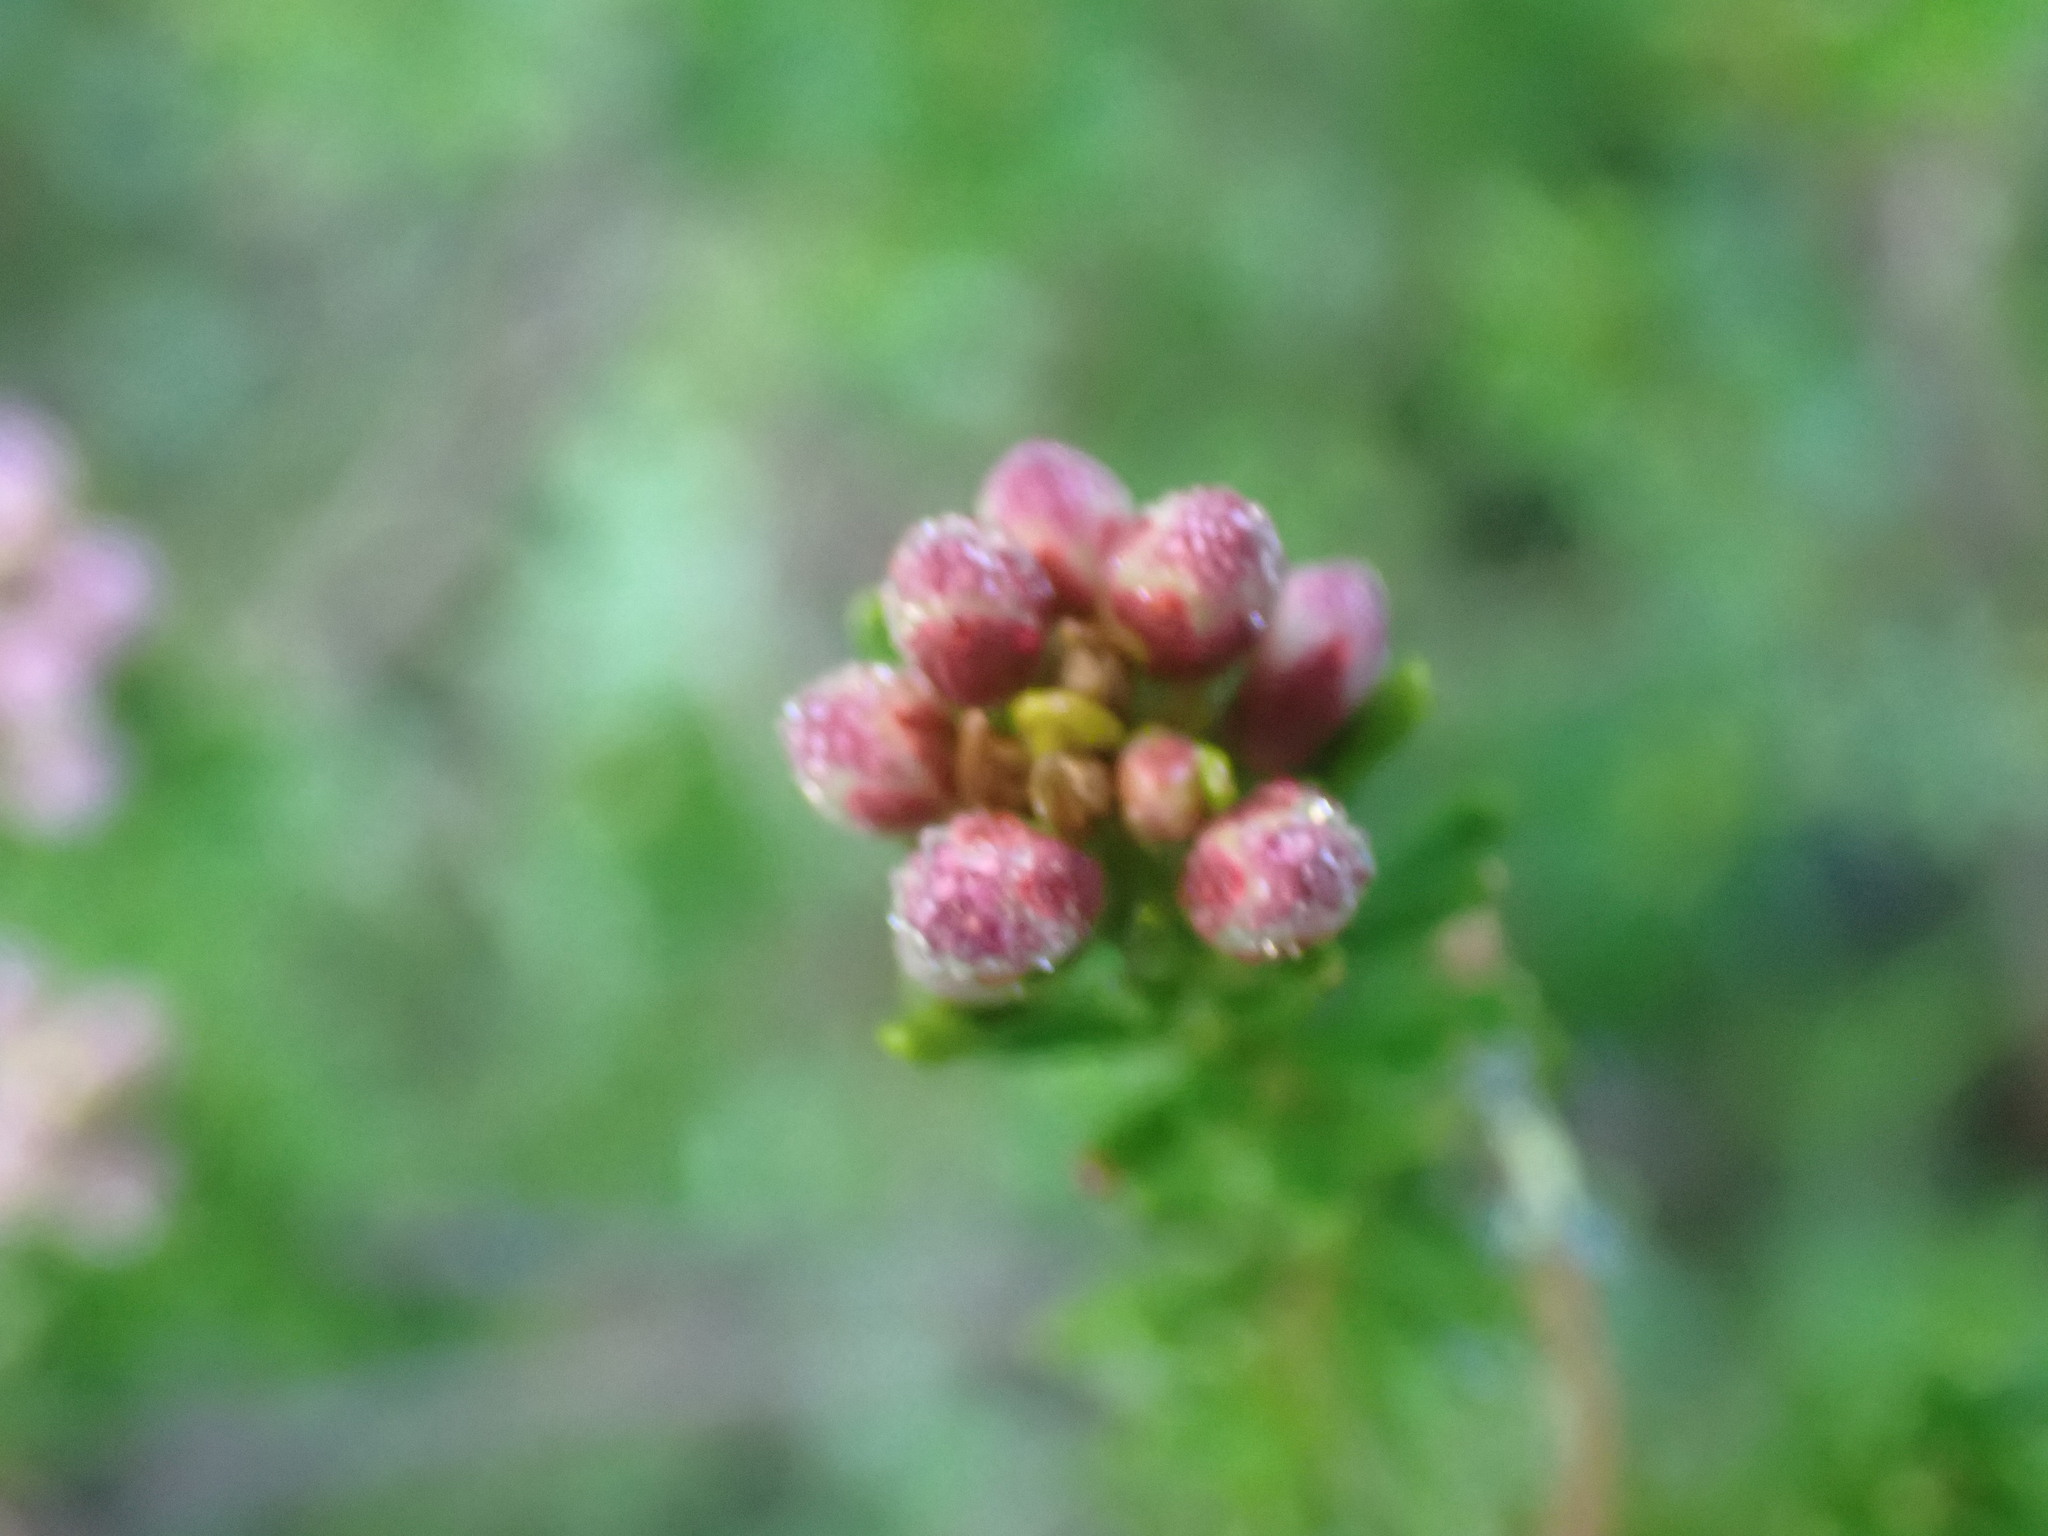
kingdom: Plantae
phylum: Tracheophyta
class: Magnoliopsida
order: Ericales
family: Ericaceae
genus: Phyllodoce
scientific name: Phyllodoce empetriformis
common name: Pink mountain heather
